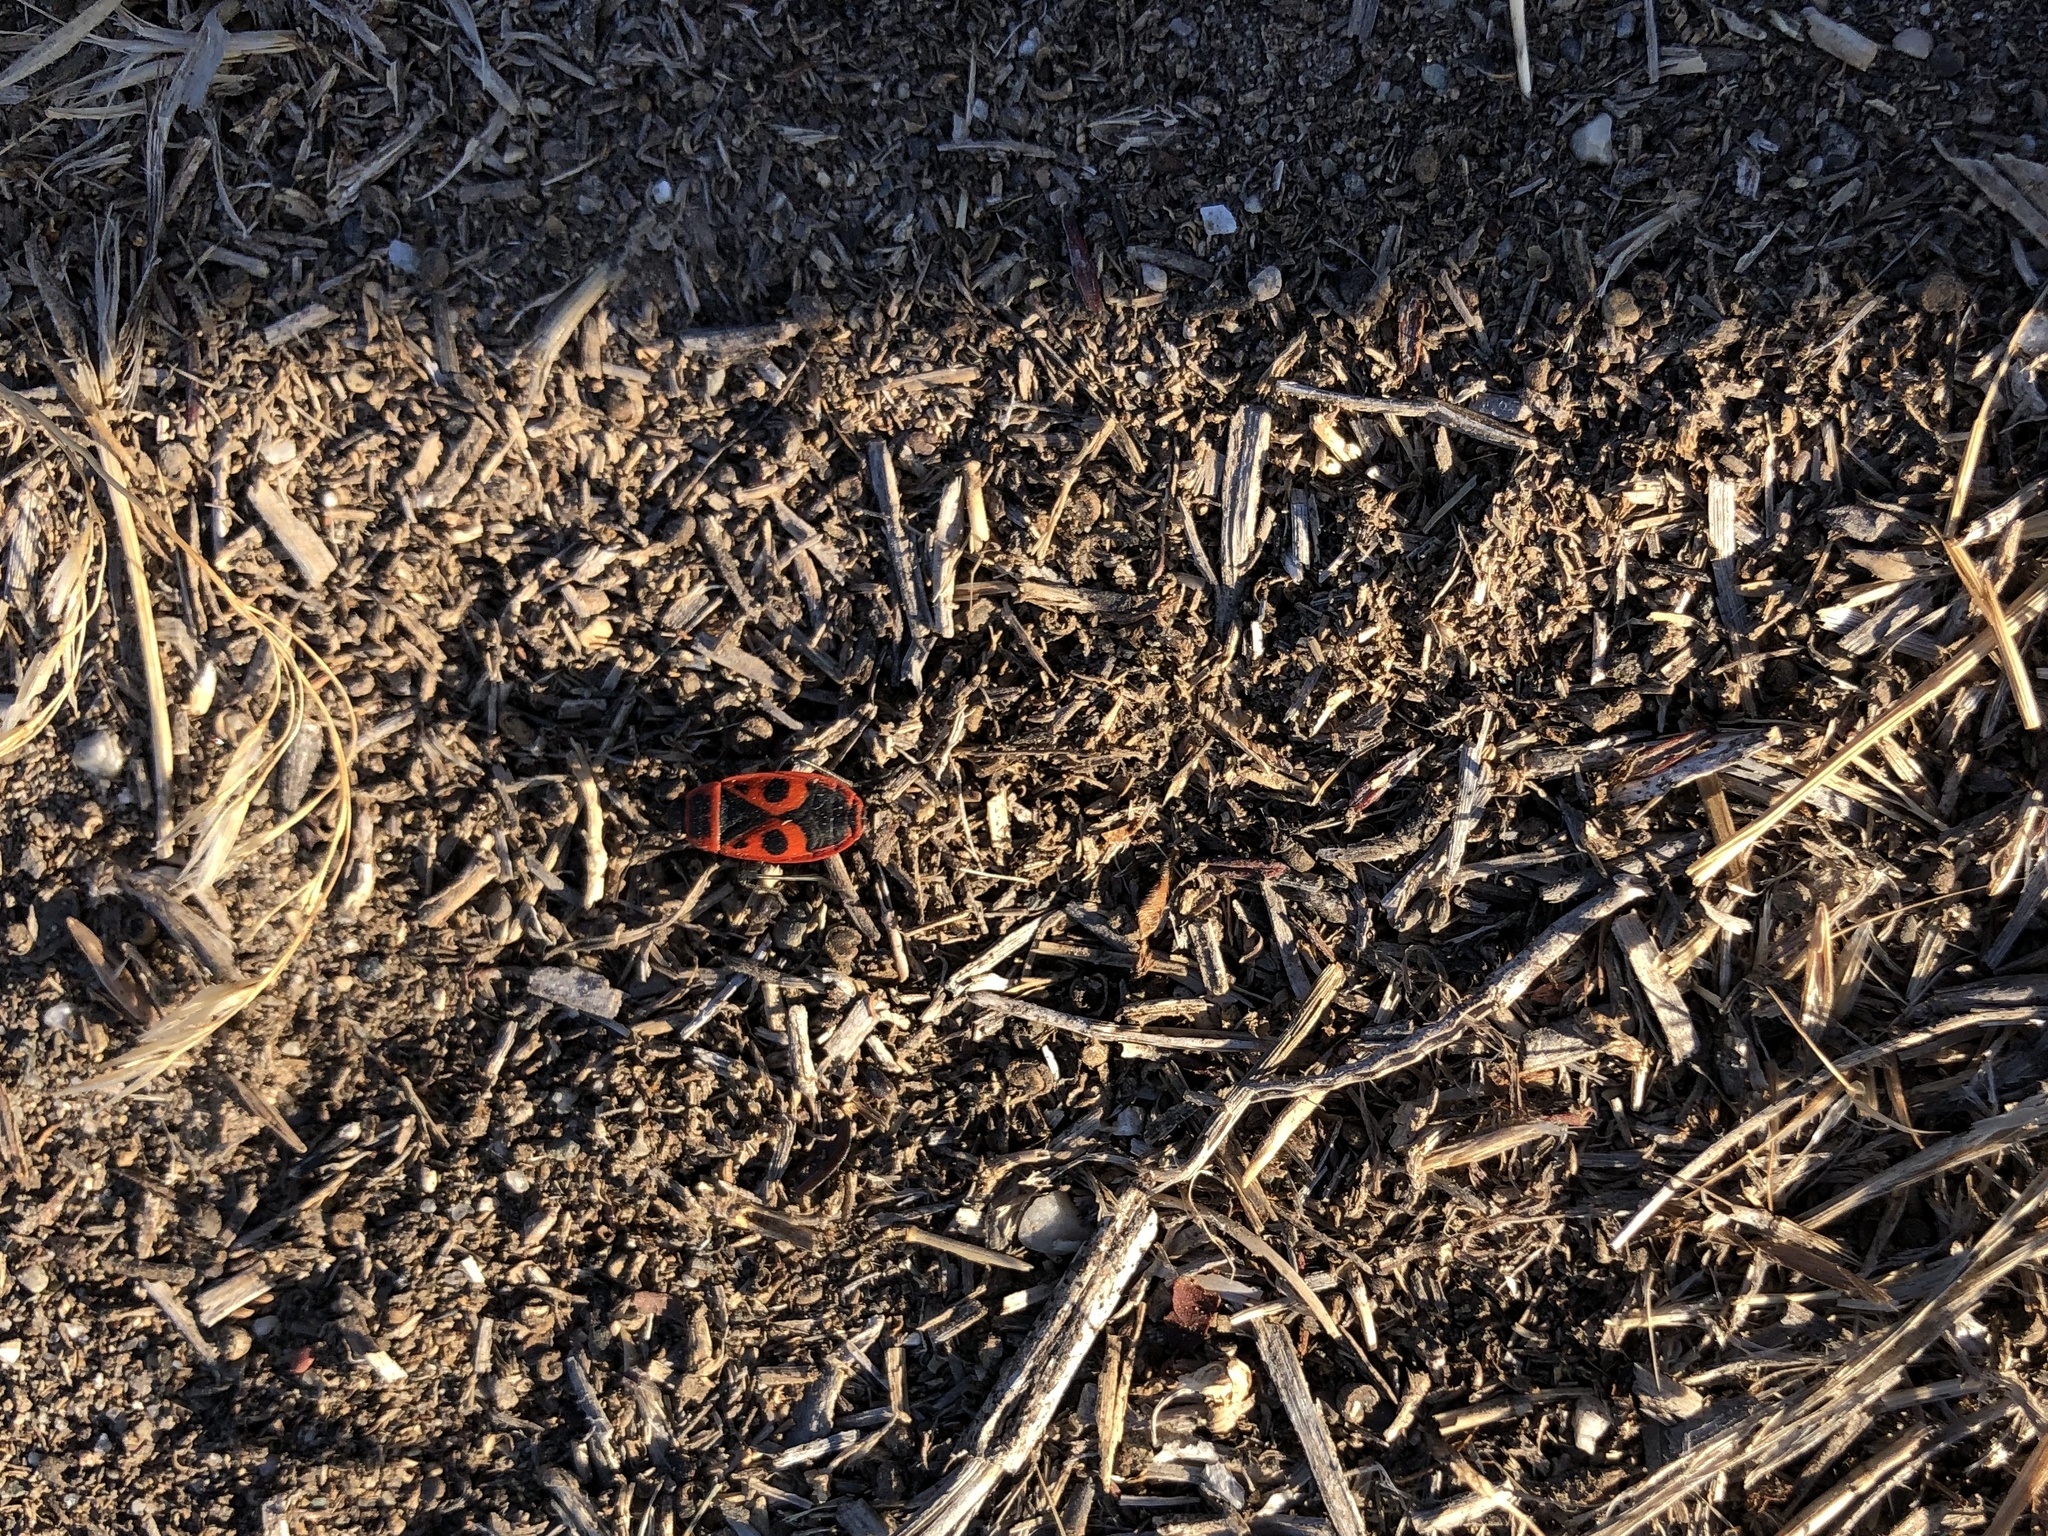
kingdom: Animalia
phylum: Arthropoda
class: Insecta
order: Hemiptera
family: Pyrrhocoridae
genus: Pyrrhocoris
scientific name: Pyrrhocoris apterus
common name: Firebug
